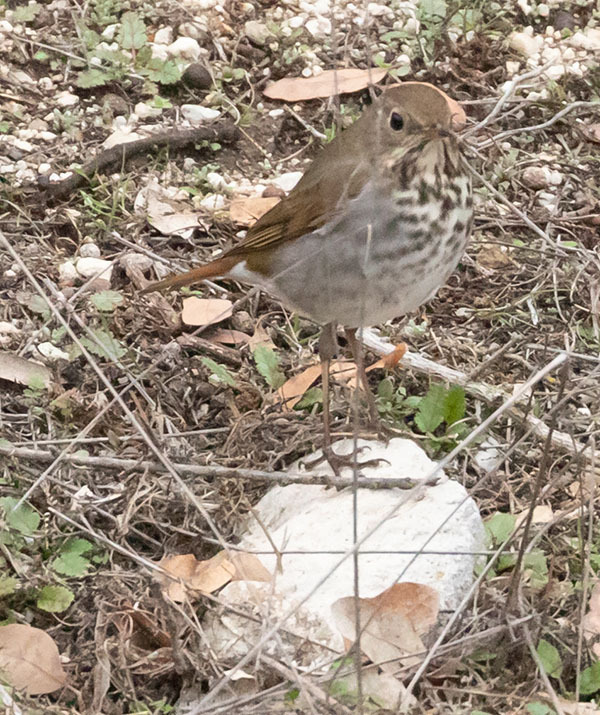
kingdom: Animalia
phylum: Chordata
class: Aves
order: Passeriformes
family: Turdidae
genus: Catharus
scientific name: Catharus guttatus
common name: Hermit thrush
